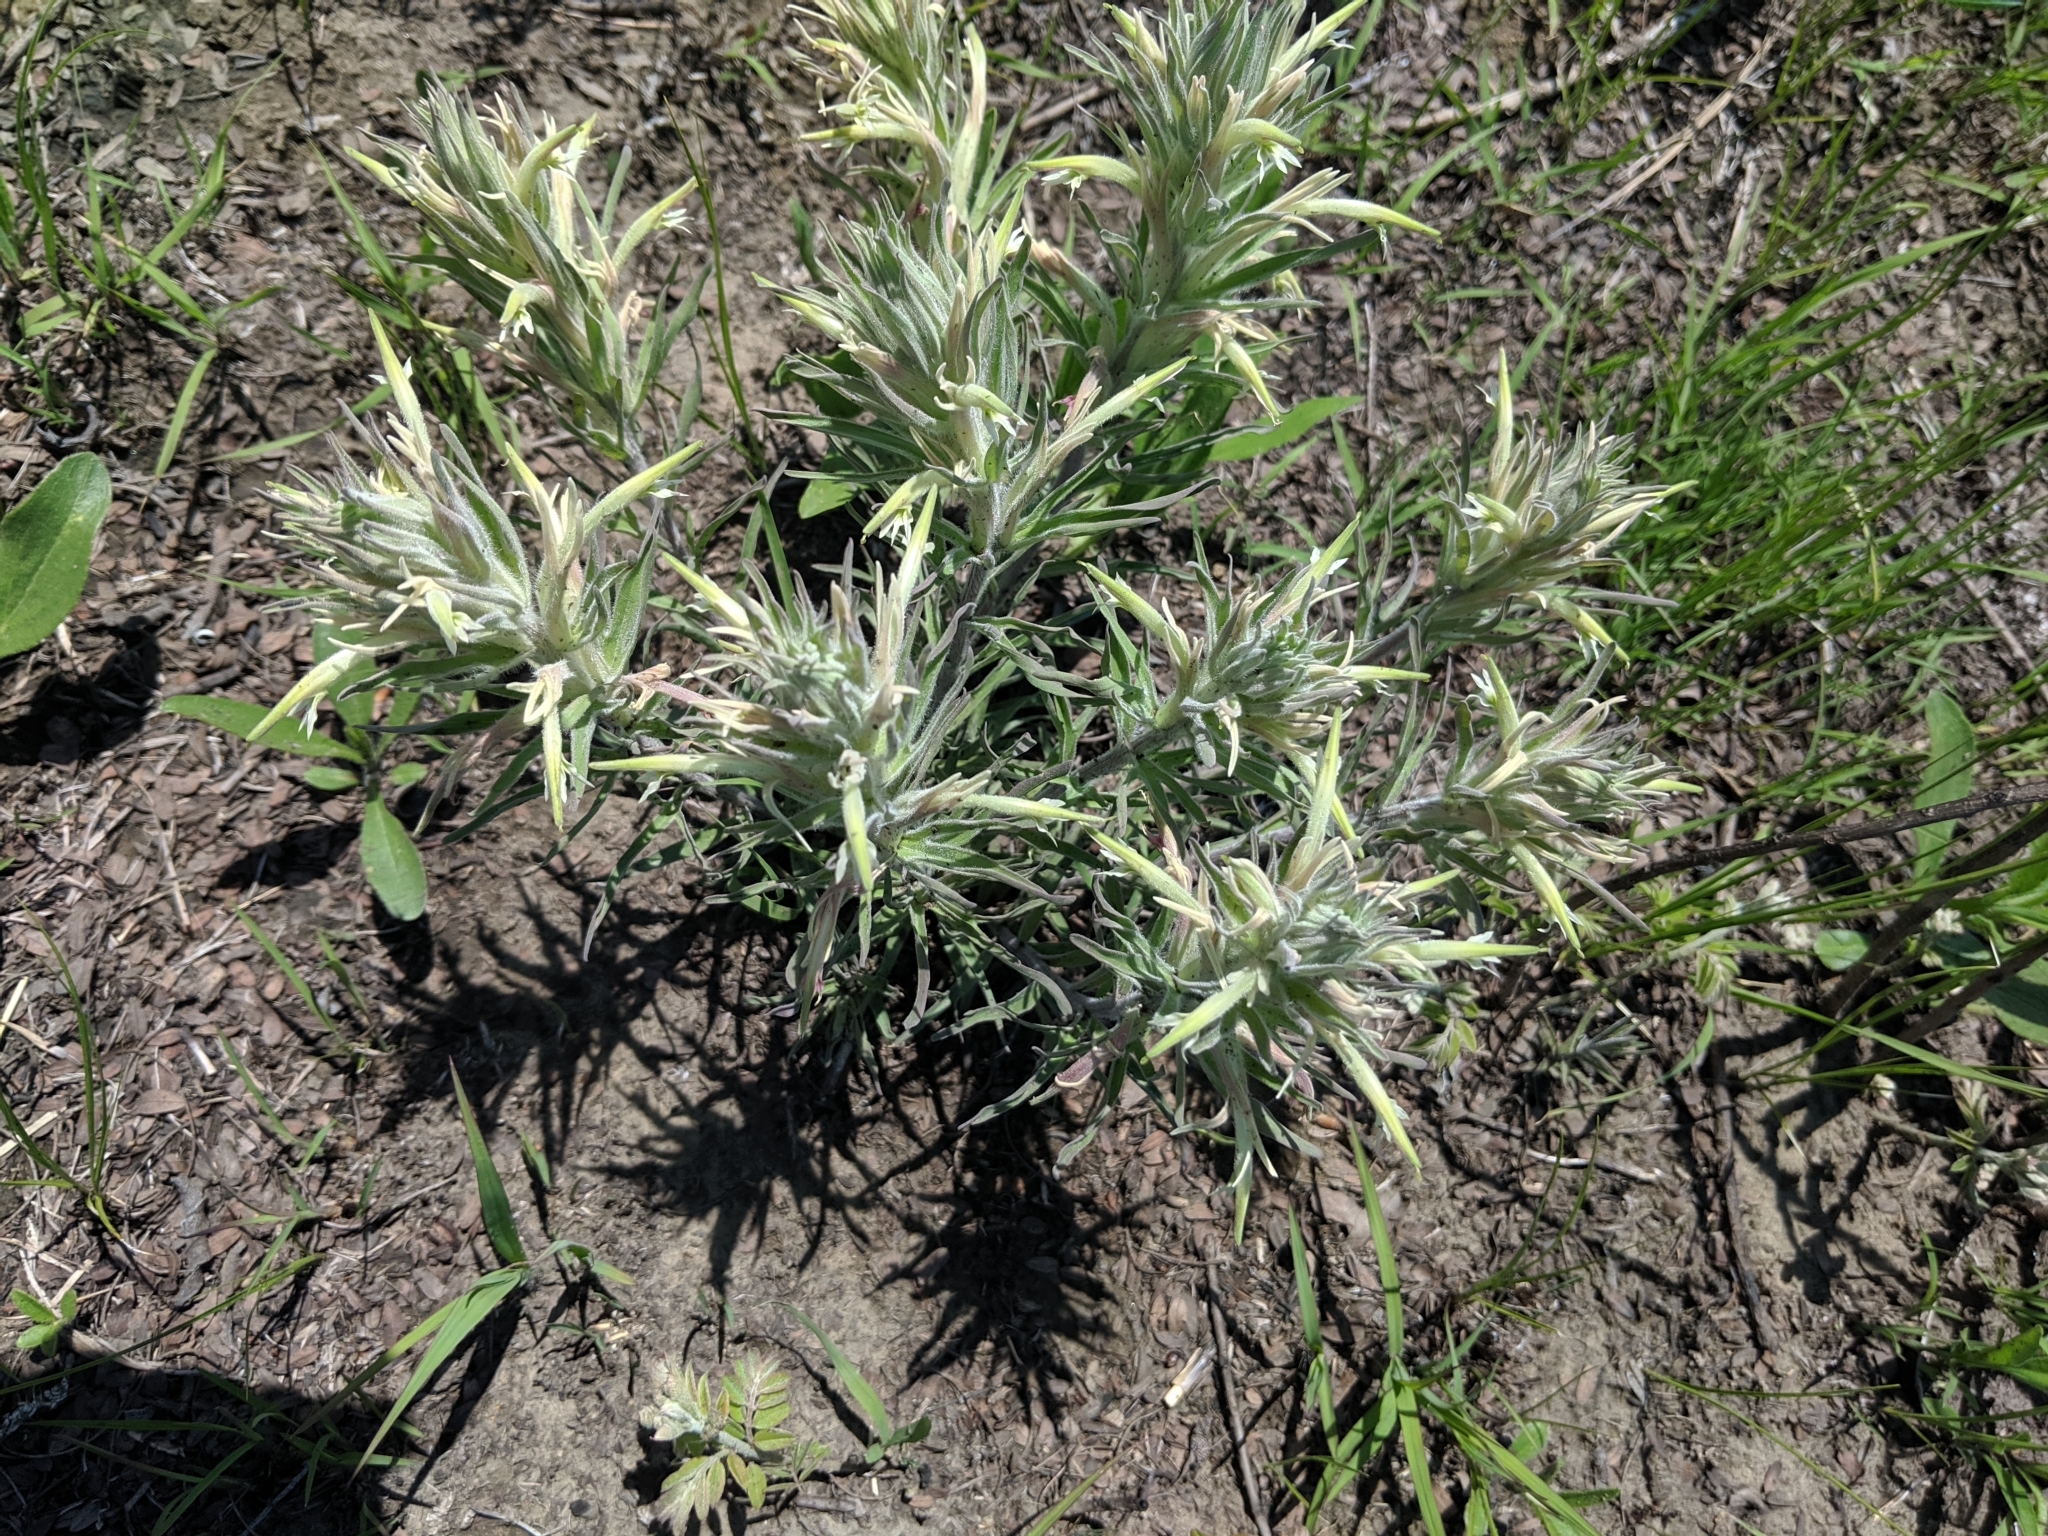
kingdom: Plantae
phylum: Tracheophyta
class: Magnoliopsida
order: Lamiales
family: Orobanchaceae
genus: Castilleja
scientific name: Castilleja sessiliflora
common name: Downy paintbrush
